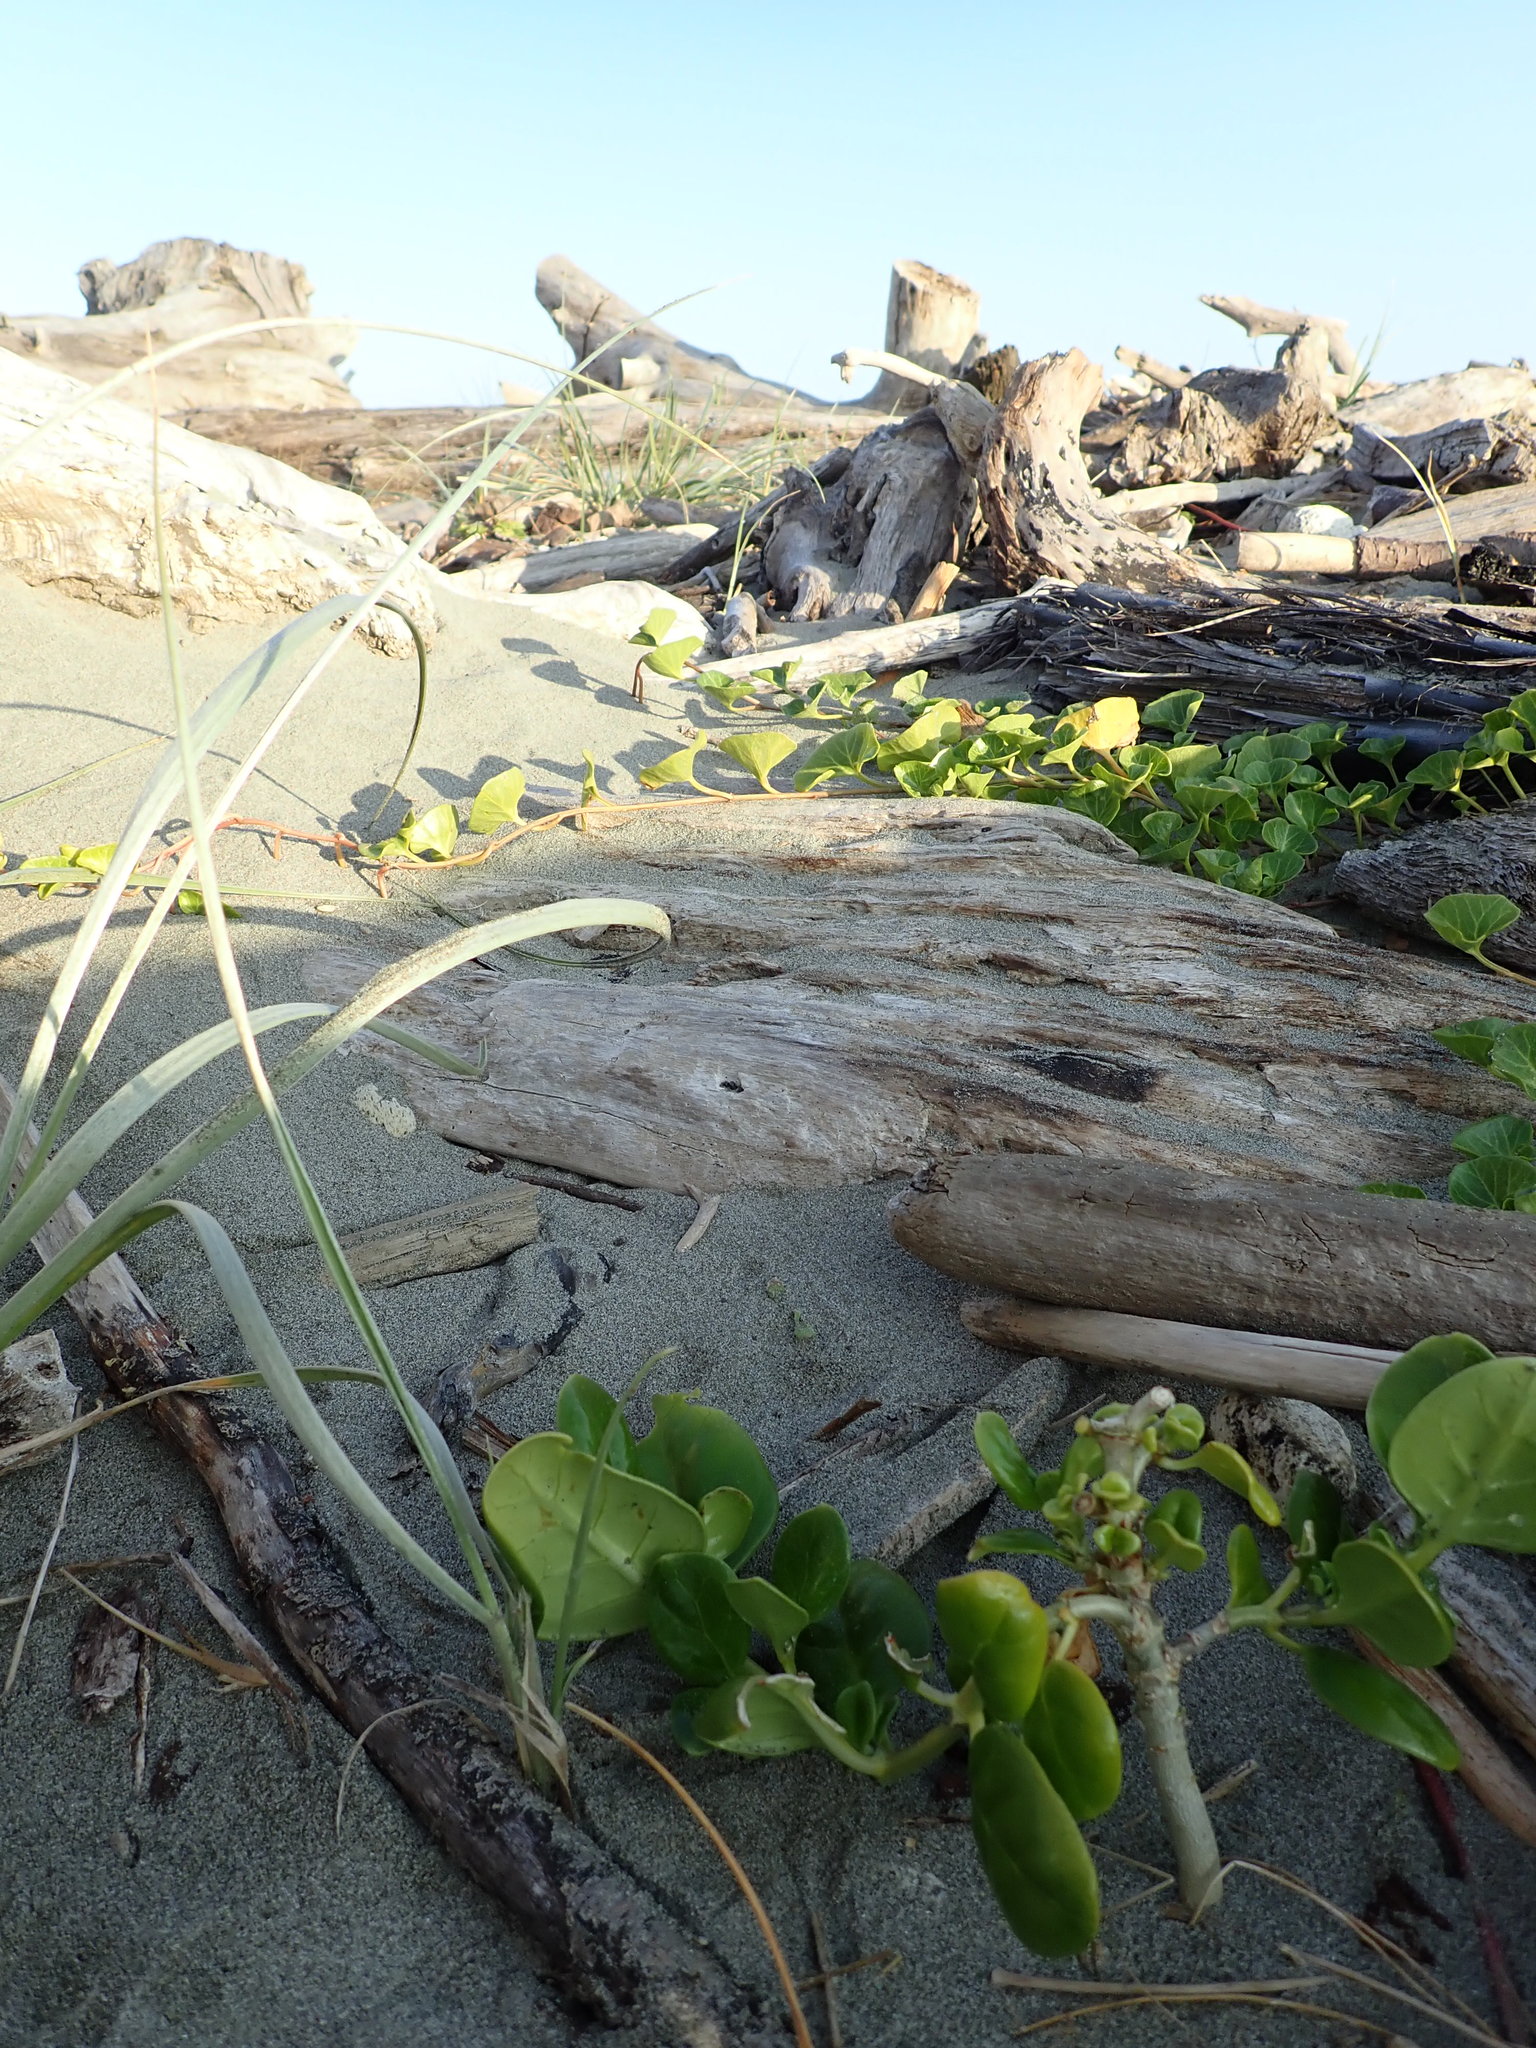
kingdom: Plantae
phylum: Tracheophyta
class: Magnoliopsida
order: Gentianales
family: Rubiaceae
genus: Coprosma
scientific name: Coprosma repens
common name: Tree bedstraw
